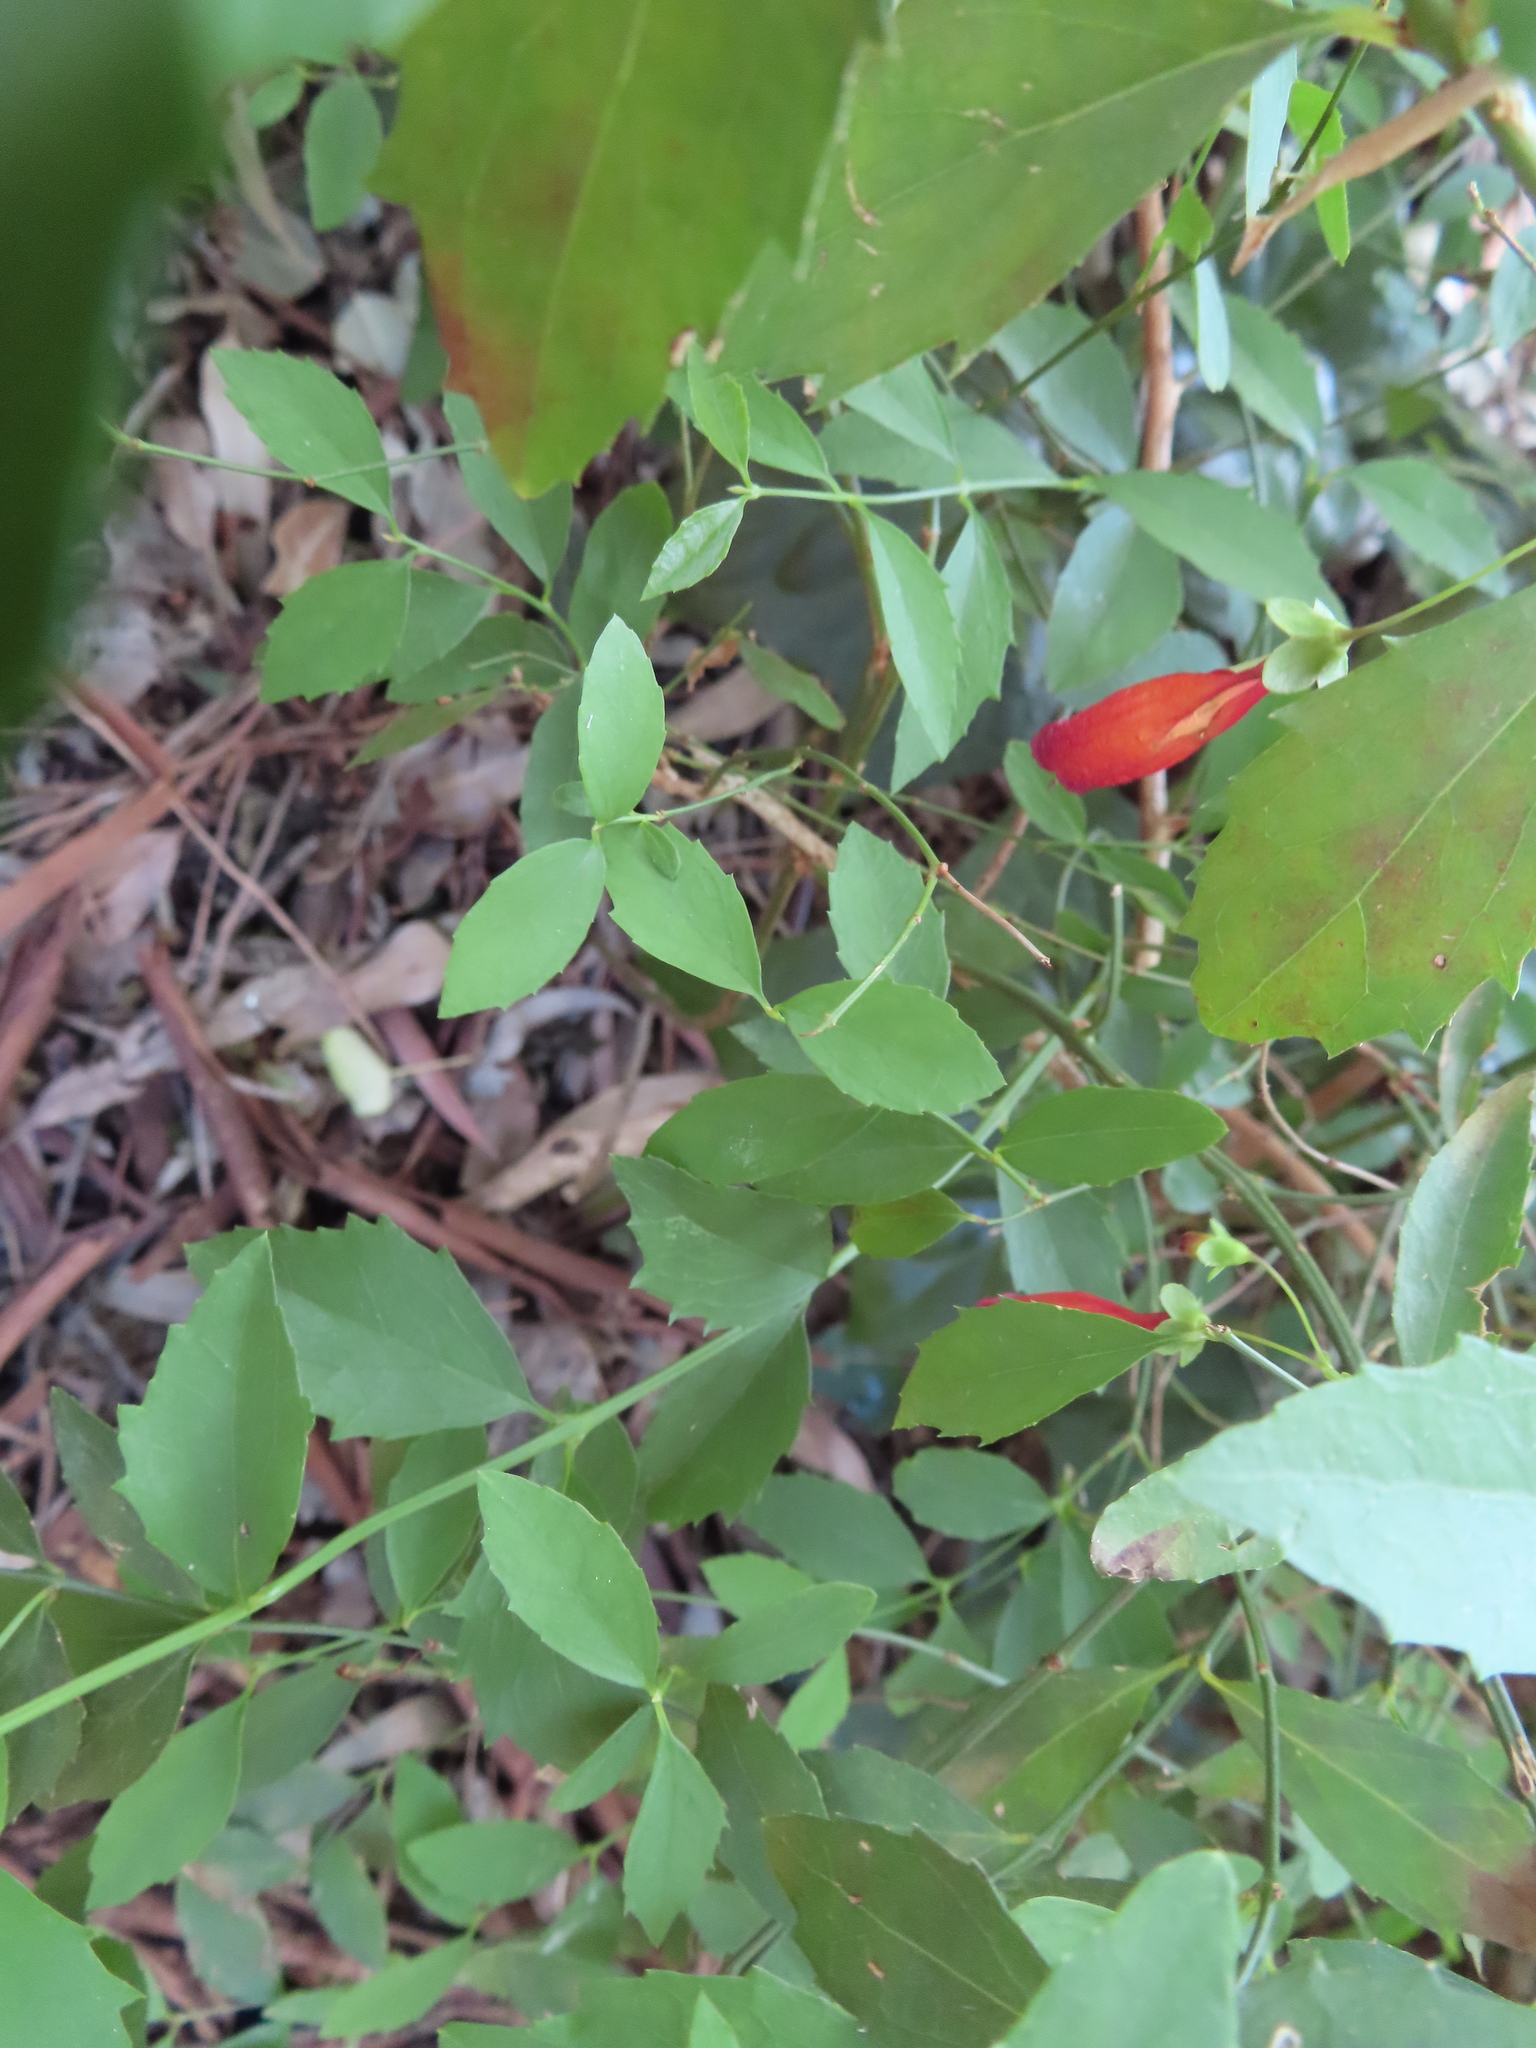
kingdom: Plantae
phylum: Tracheophyta
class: Magnoliopsida
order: Lamiales
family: Stilbaceae
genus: Halleria
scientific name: Halleria lucida
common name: Tree fuschia
